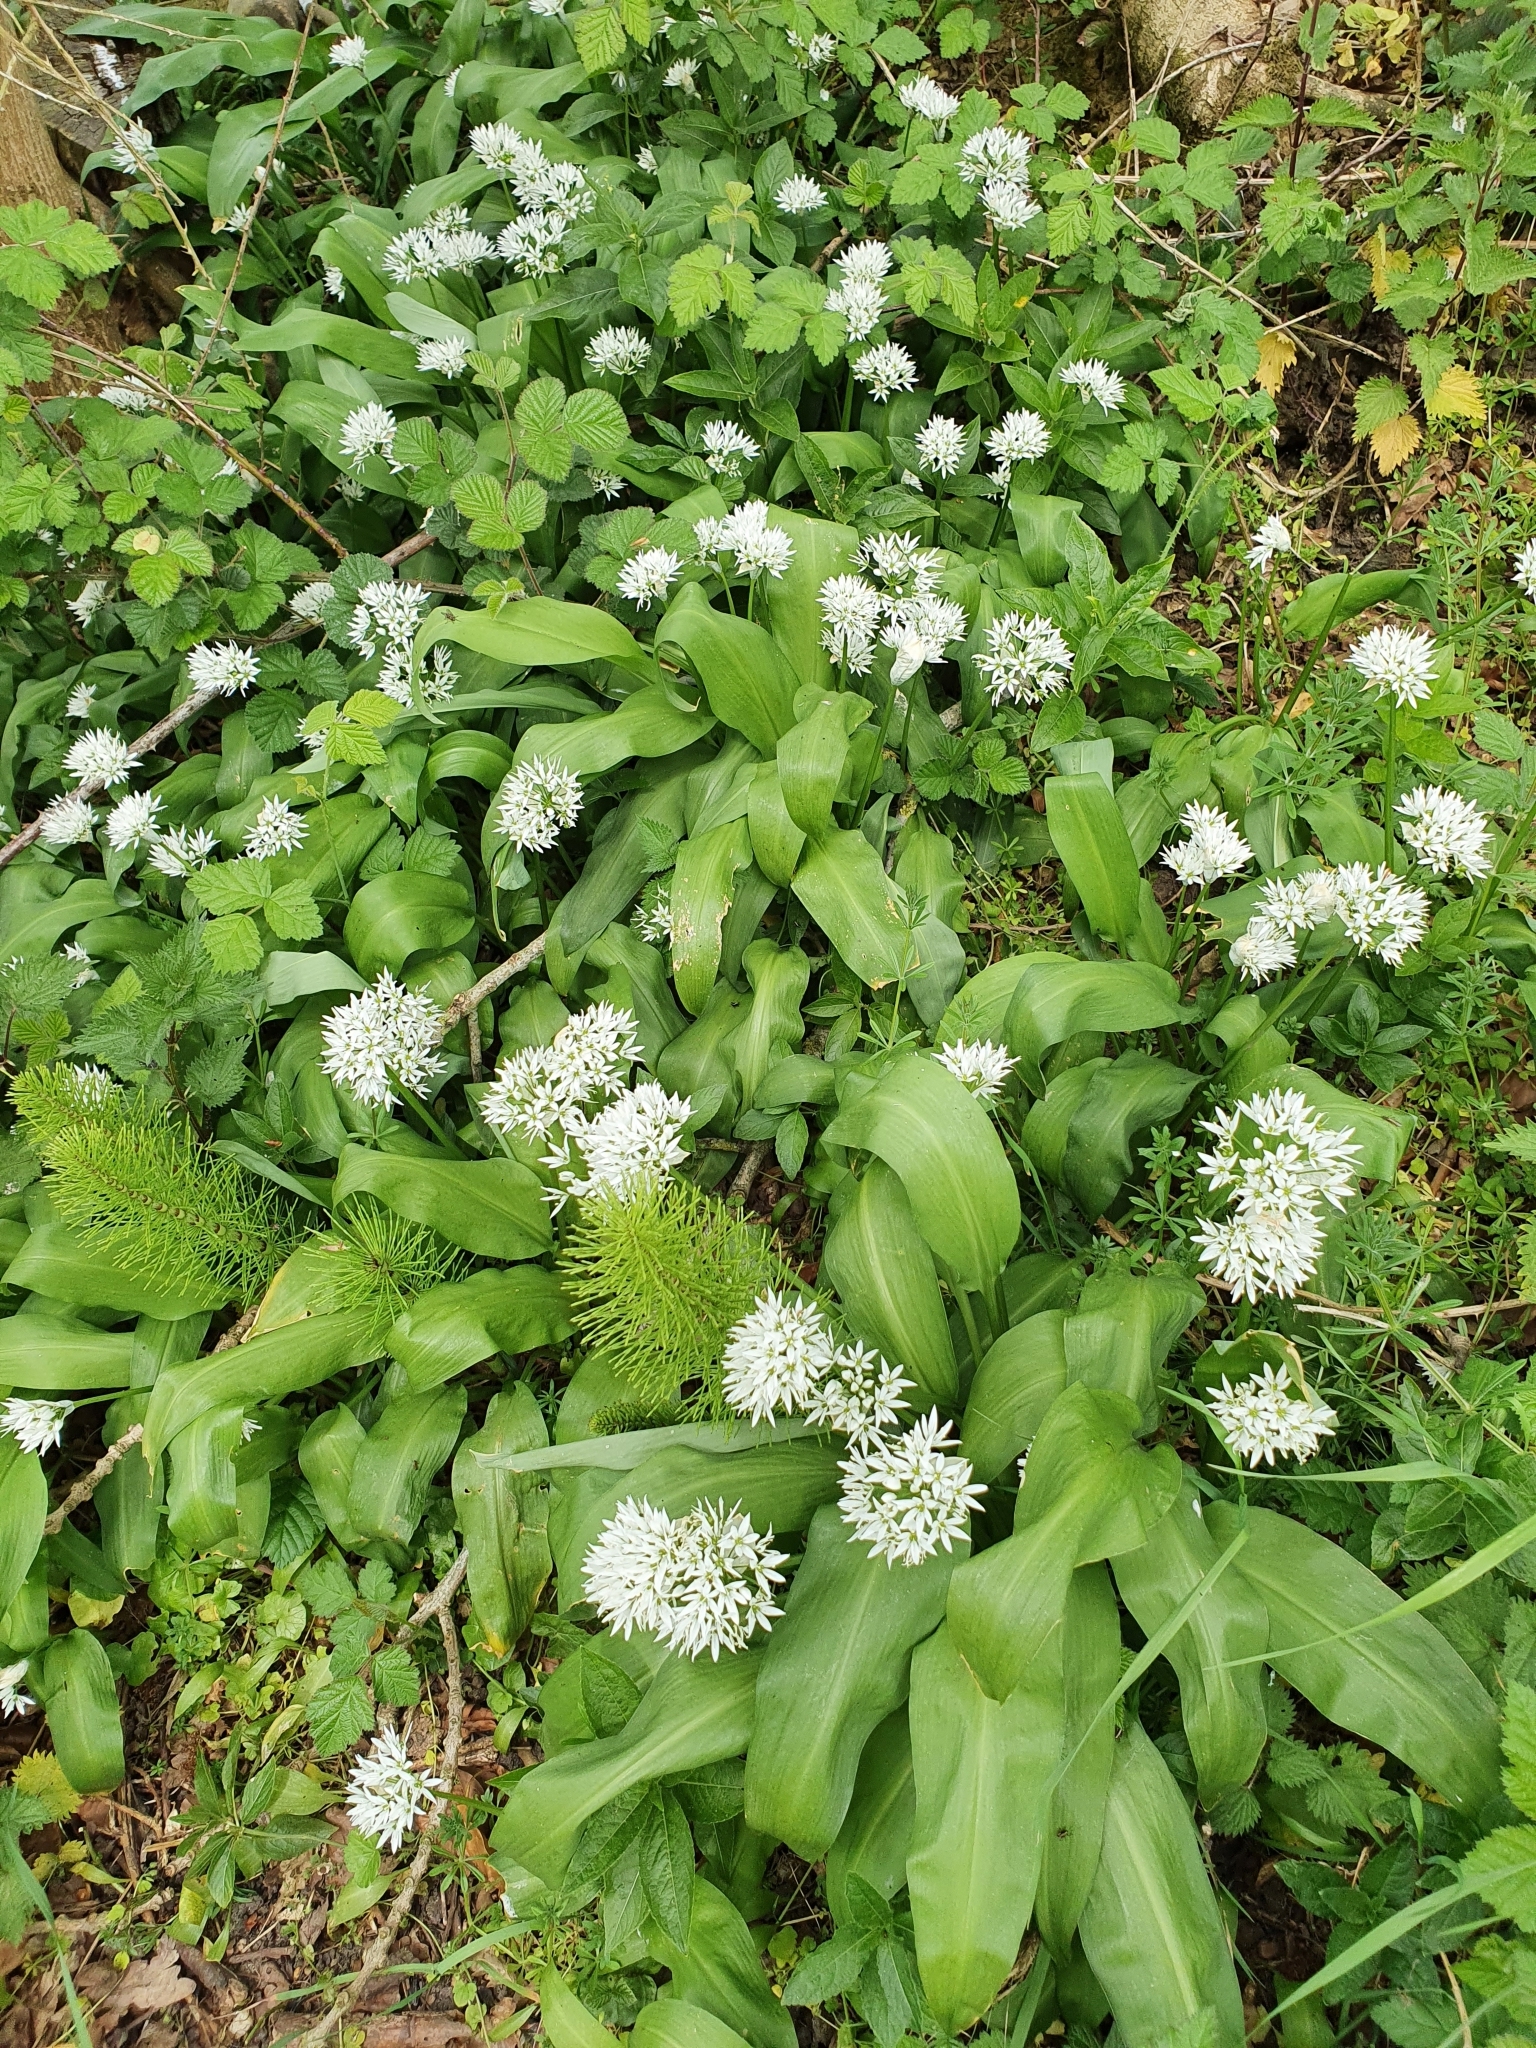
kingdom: Plantae
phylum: Tracheophyta
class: Liliopsida
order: Asparagales
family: Amaryllidaceae
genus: Allium
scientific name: Allium ursinum
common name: Ramsons
